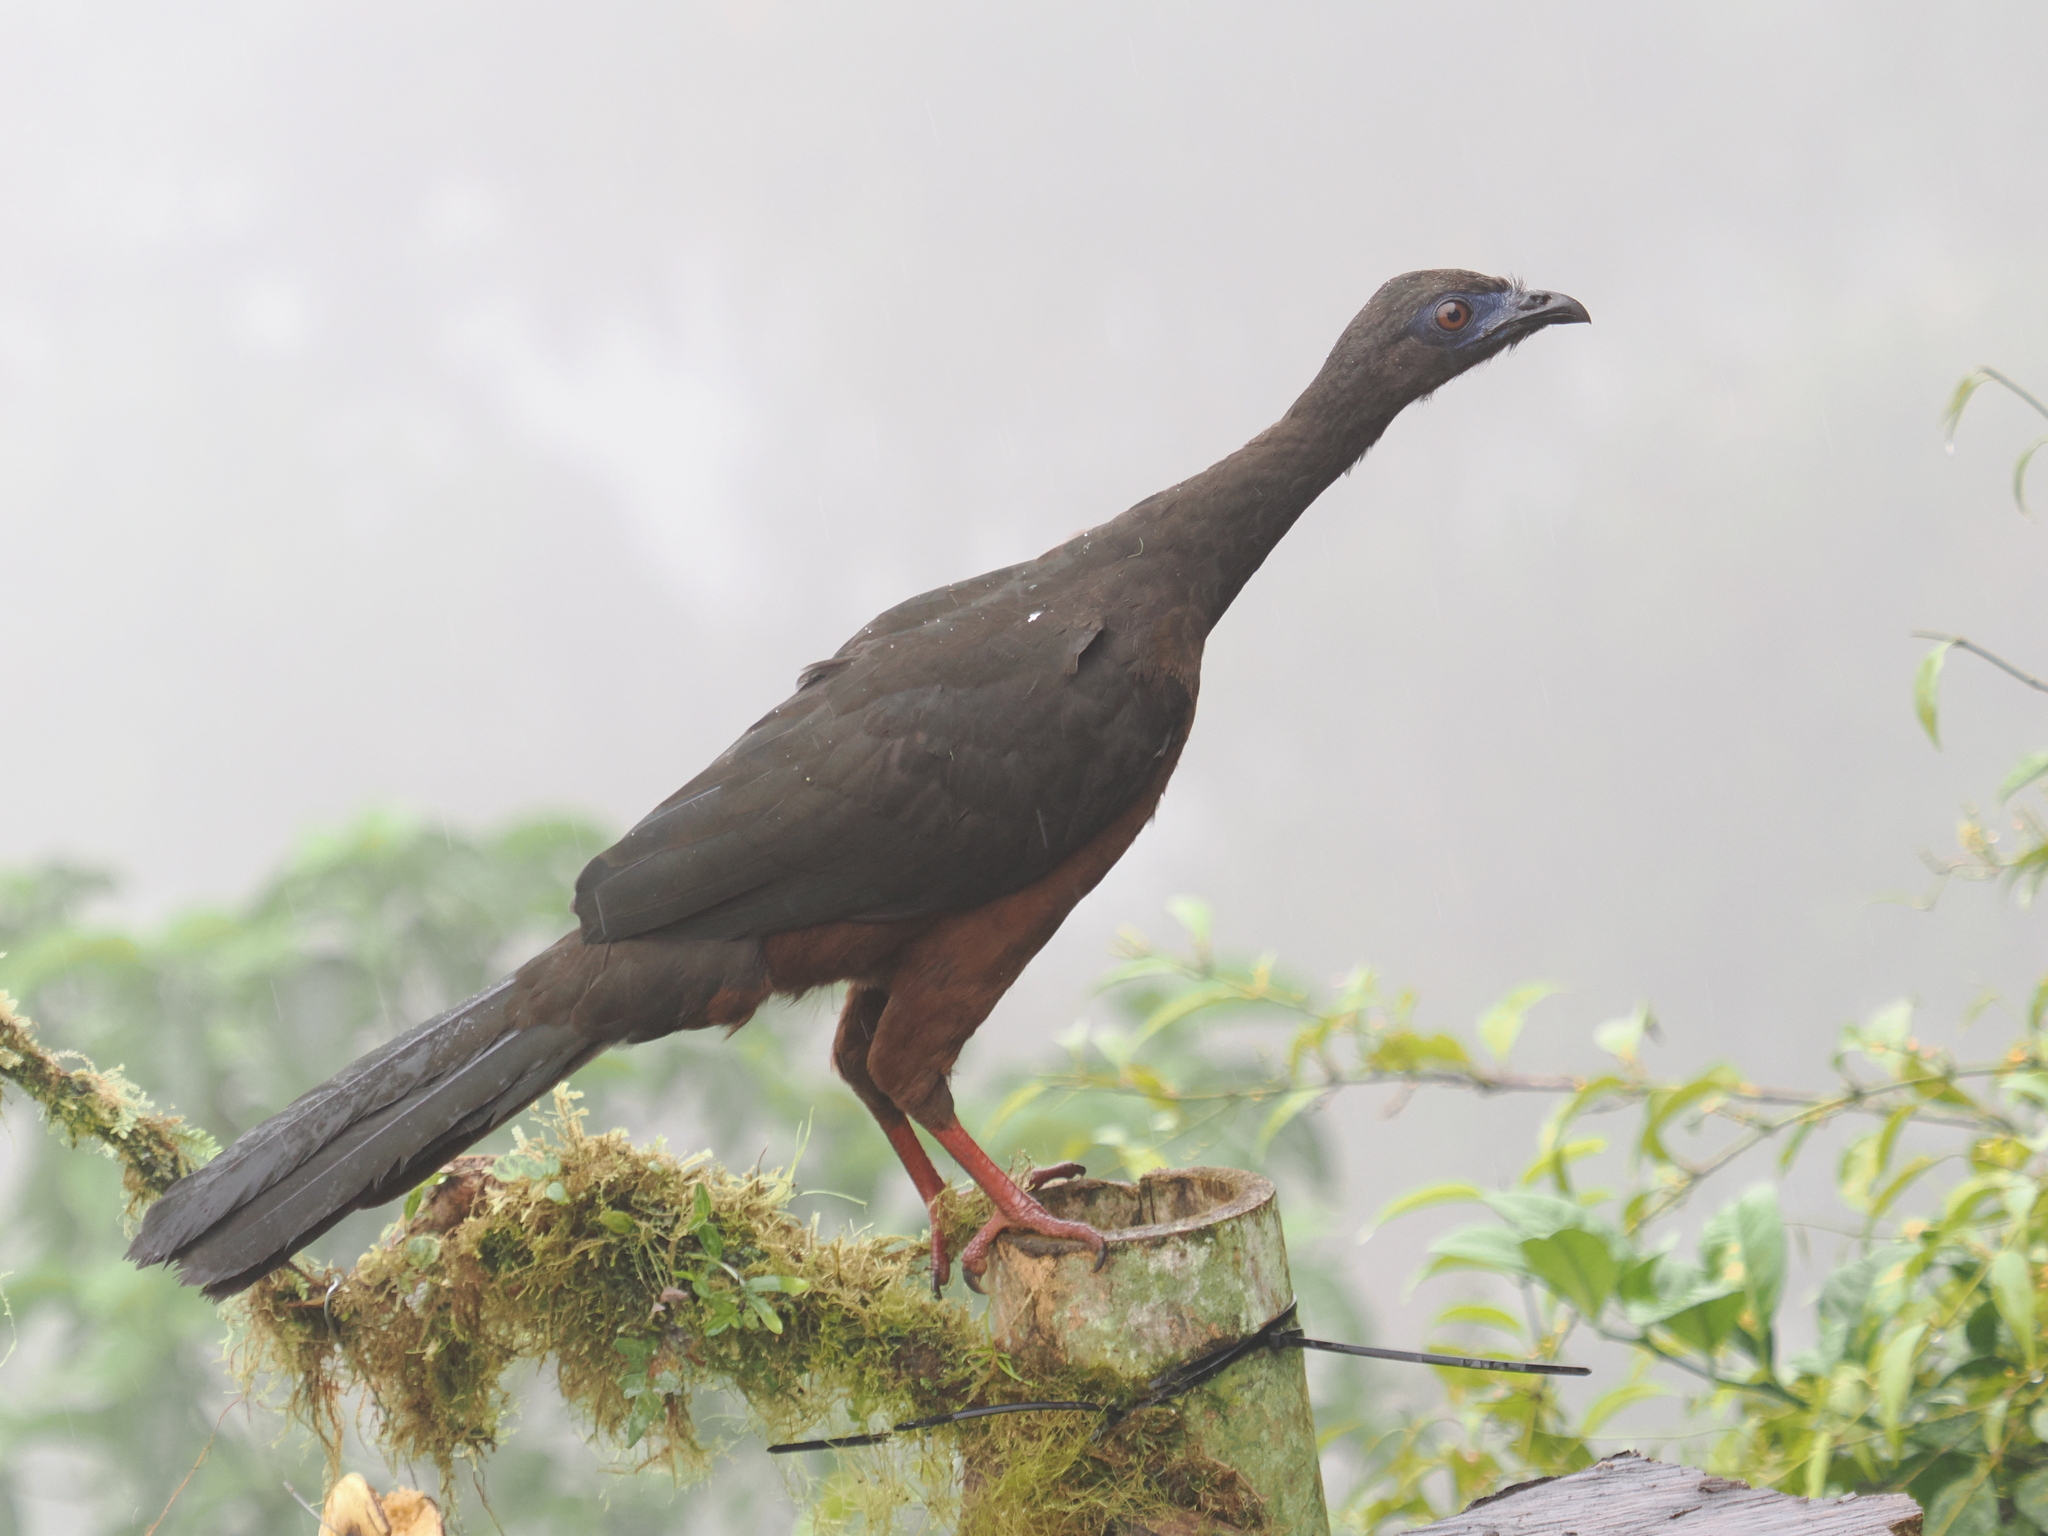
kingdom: Animalia
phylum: Chordata
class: Aves
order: Galliformes
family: Cracidae
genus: Chamaepetes
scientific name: Chamaepetes goudotii
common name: Sickle-winged guan
